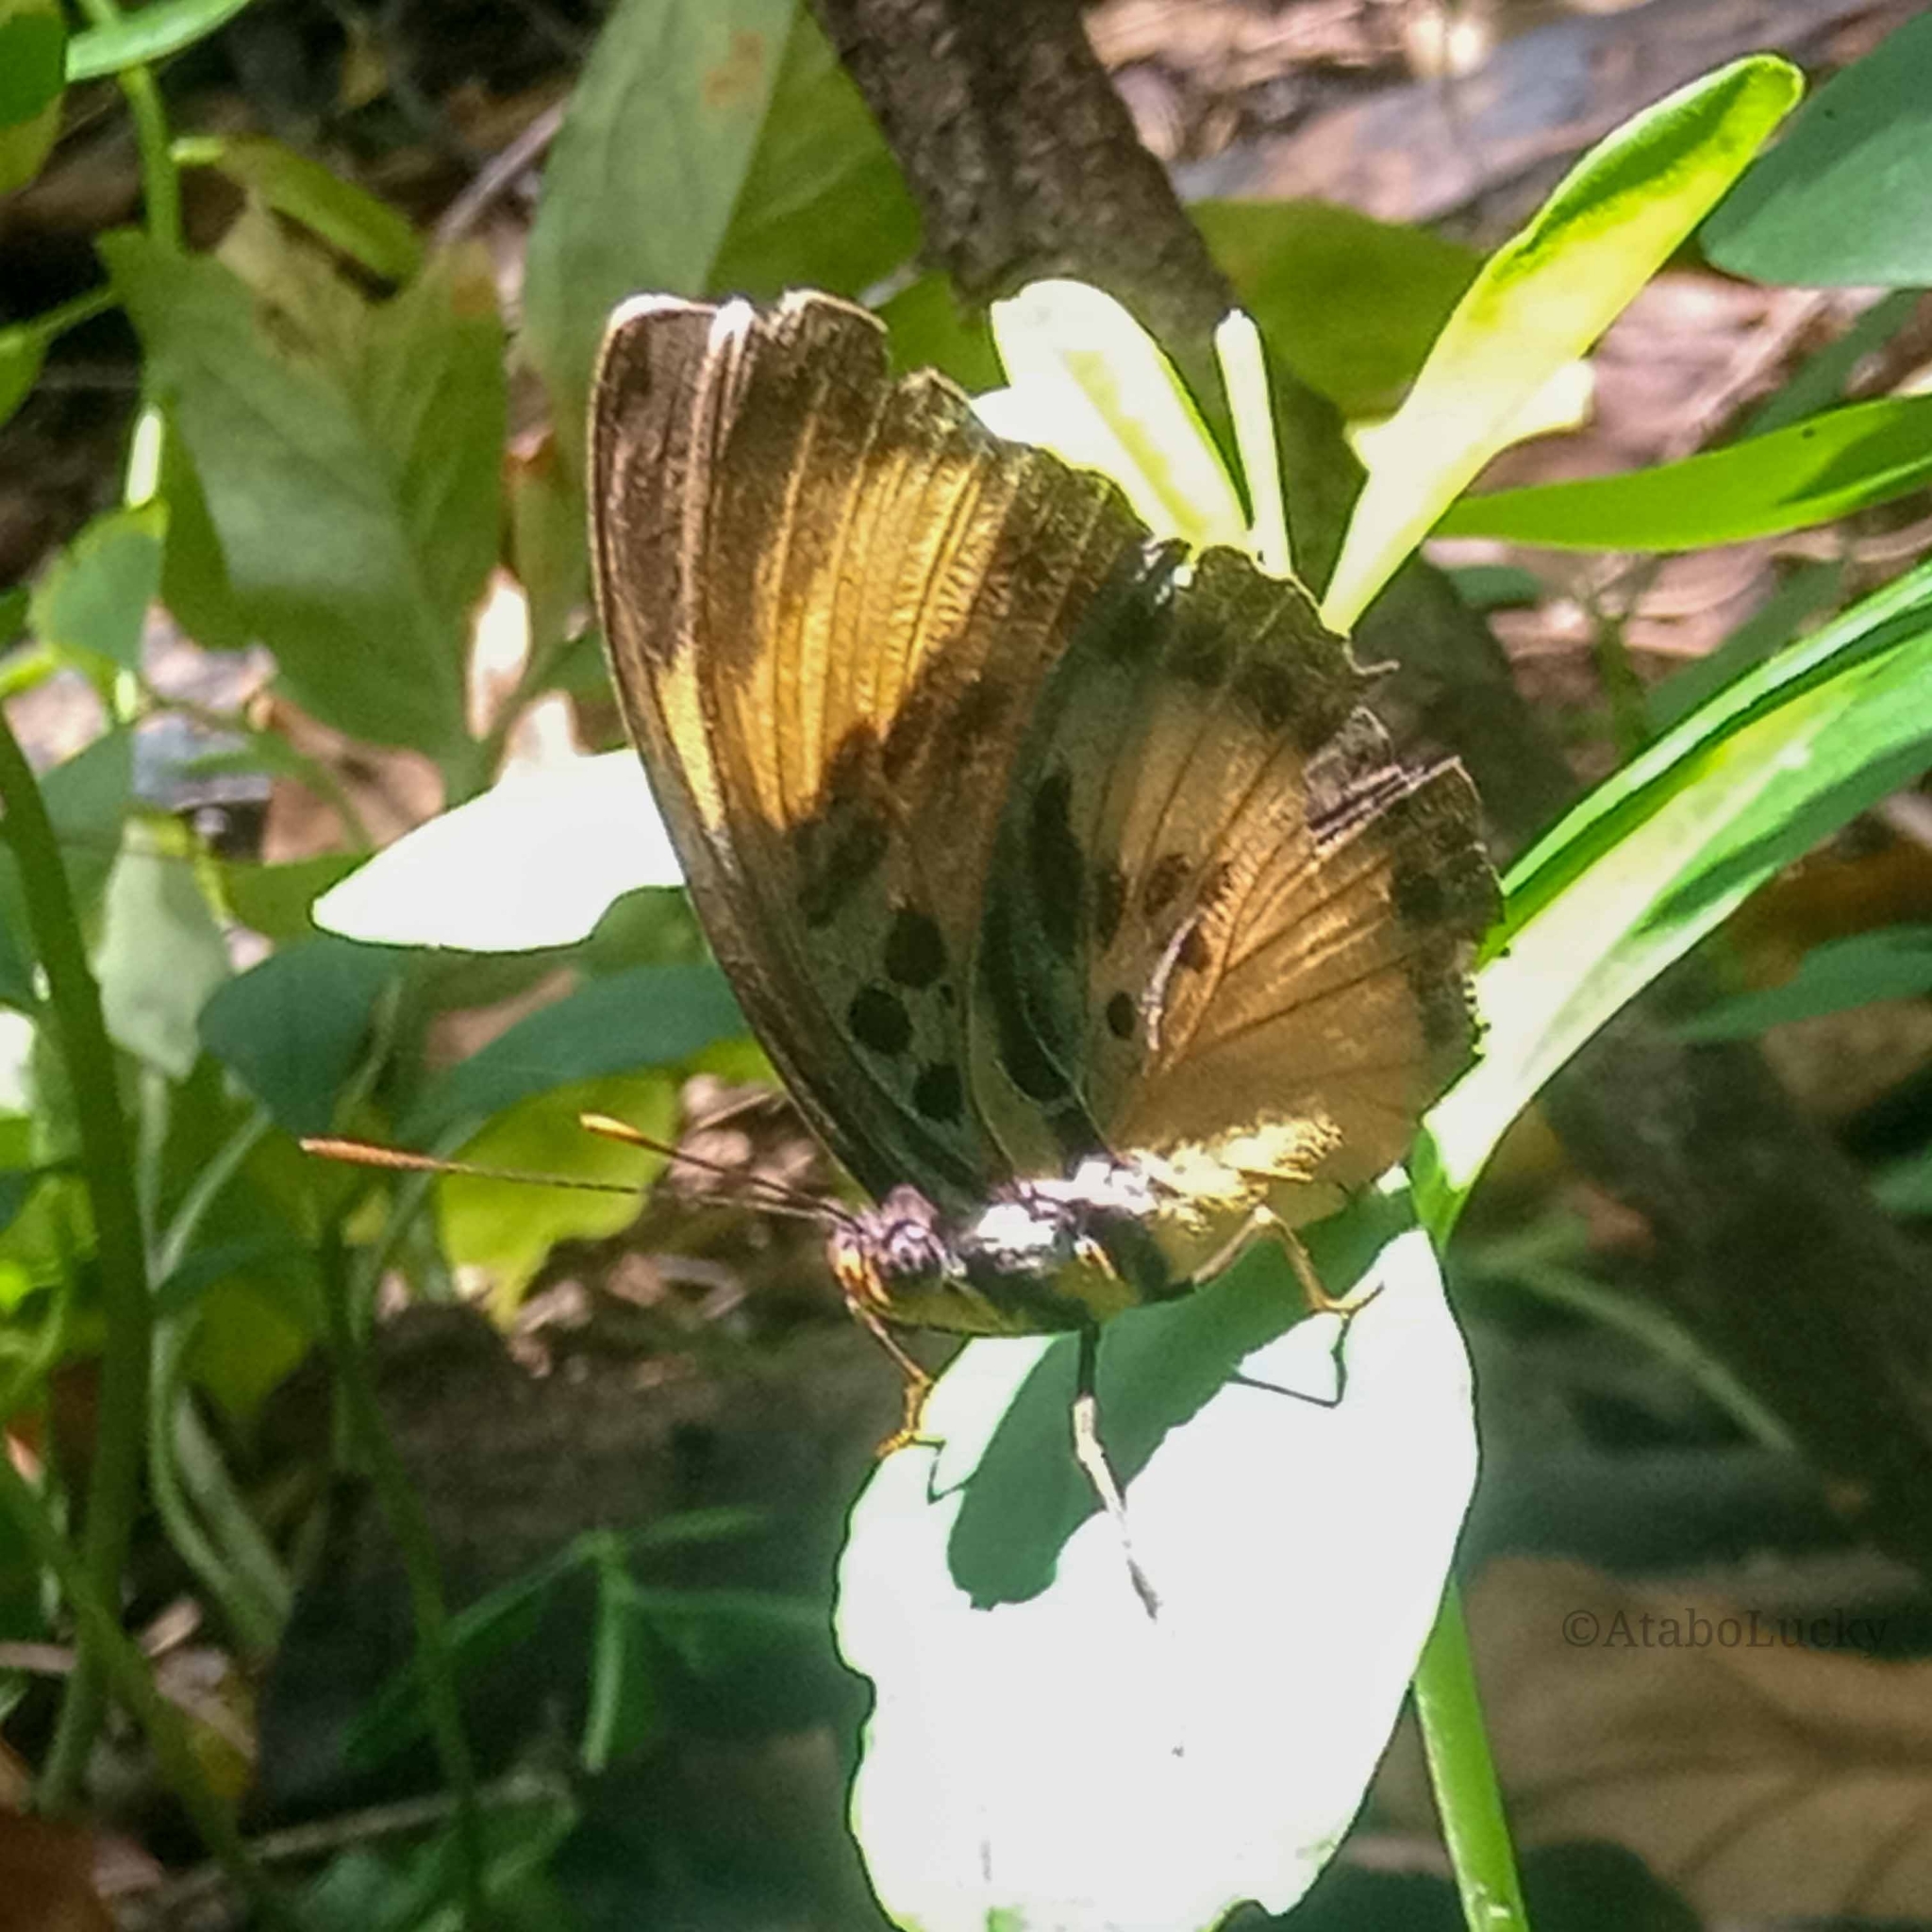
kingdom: Animalia
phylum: Arthropoda
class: Insecta
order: Lepidoptera
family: Nymphalidae
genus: Euphaedra
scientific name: Euphaedra ceres
